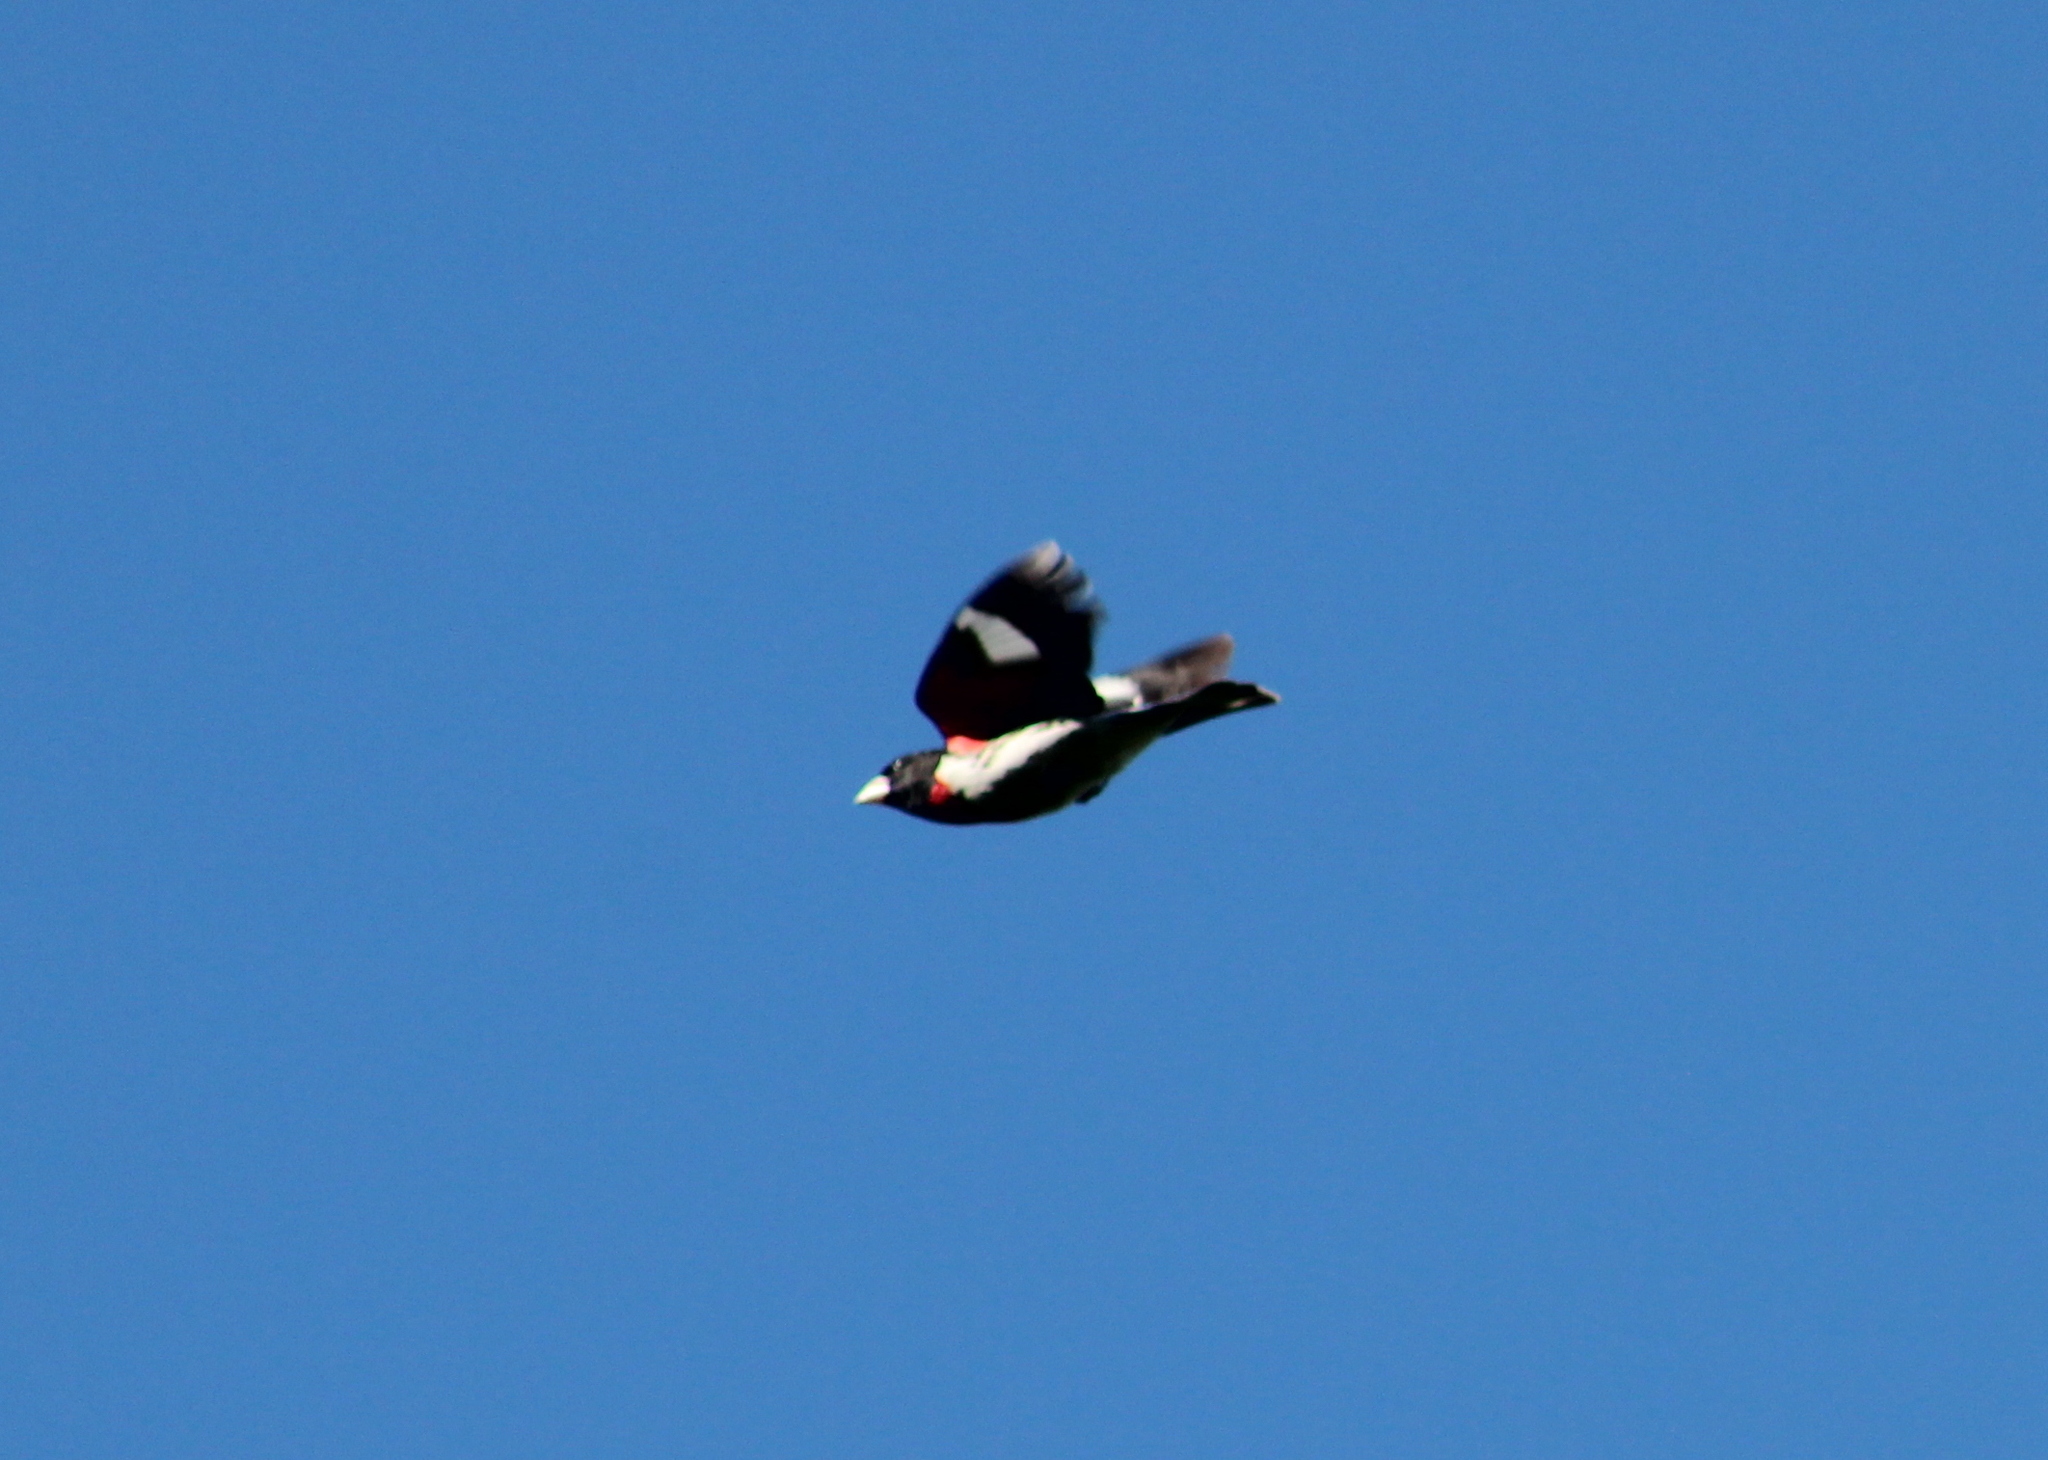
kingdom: Animalia
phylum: Chordata
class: Aves
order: Passeriformes
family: Cardinalidae
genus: Pheucticus
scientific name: Pheucticus ludovicianus
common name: Rose-breasted grosbeak
